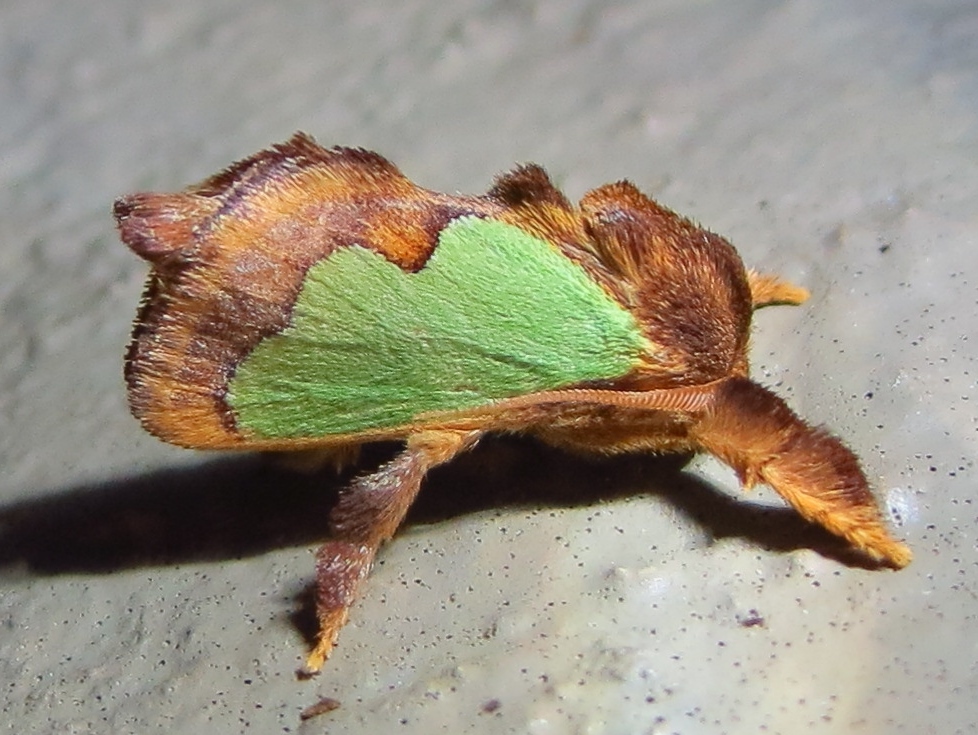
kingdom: Animalia
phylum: Arthropoda
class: Insecta
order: Lepidoptera
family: Limacodidae
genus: Euclea
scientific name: Euclea incisa
